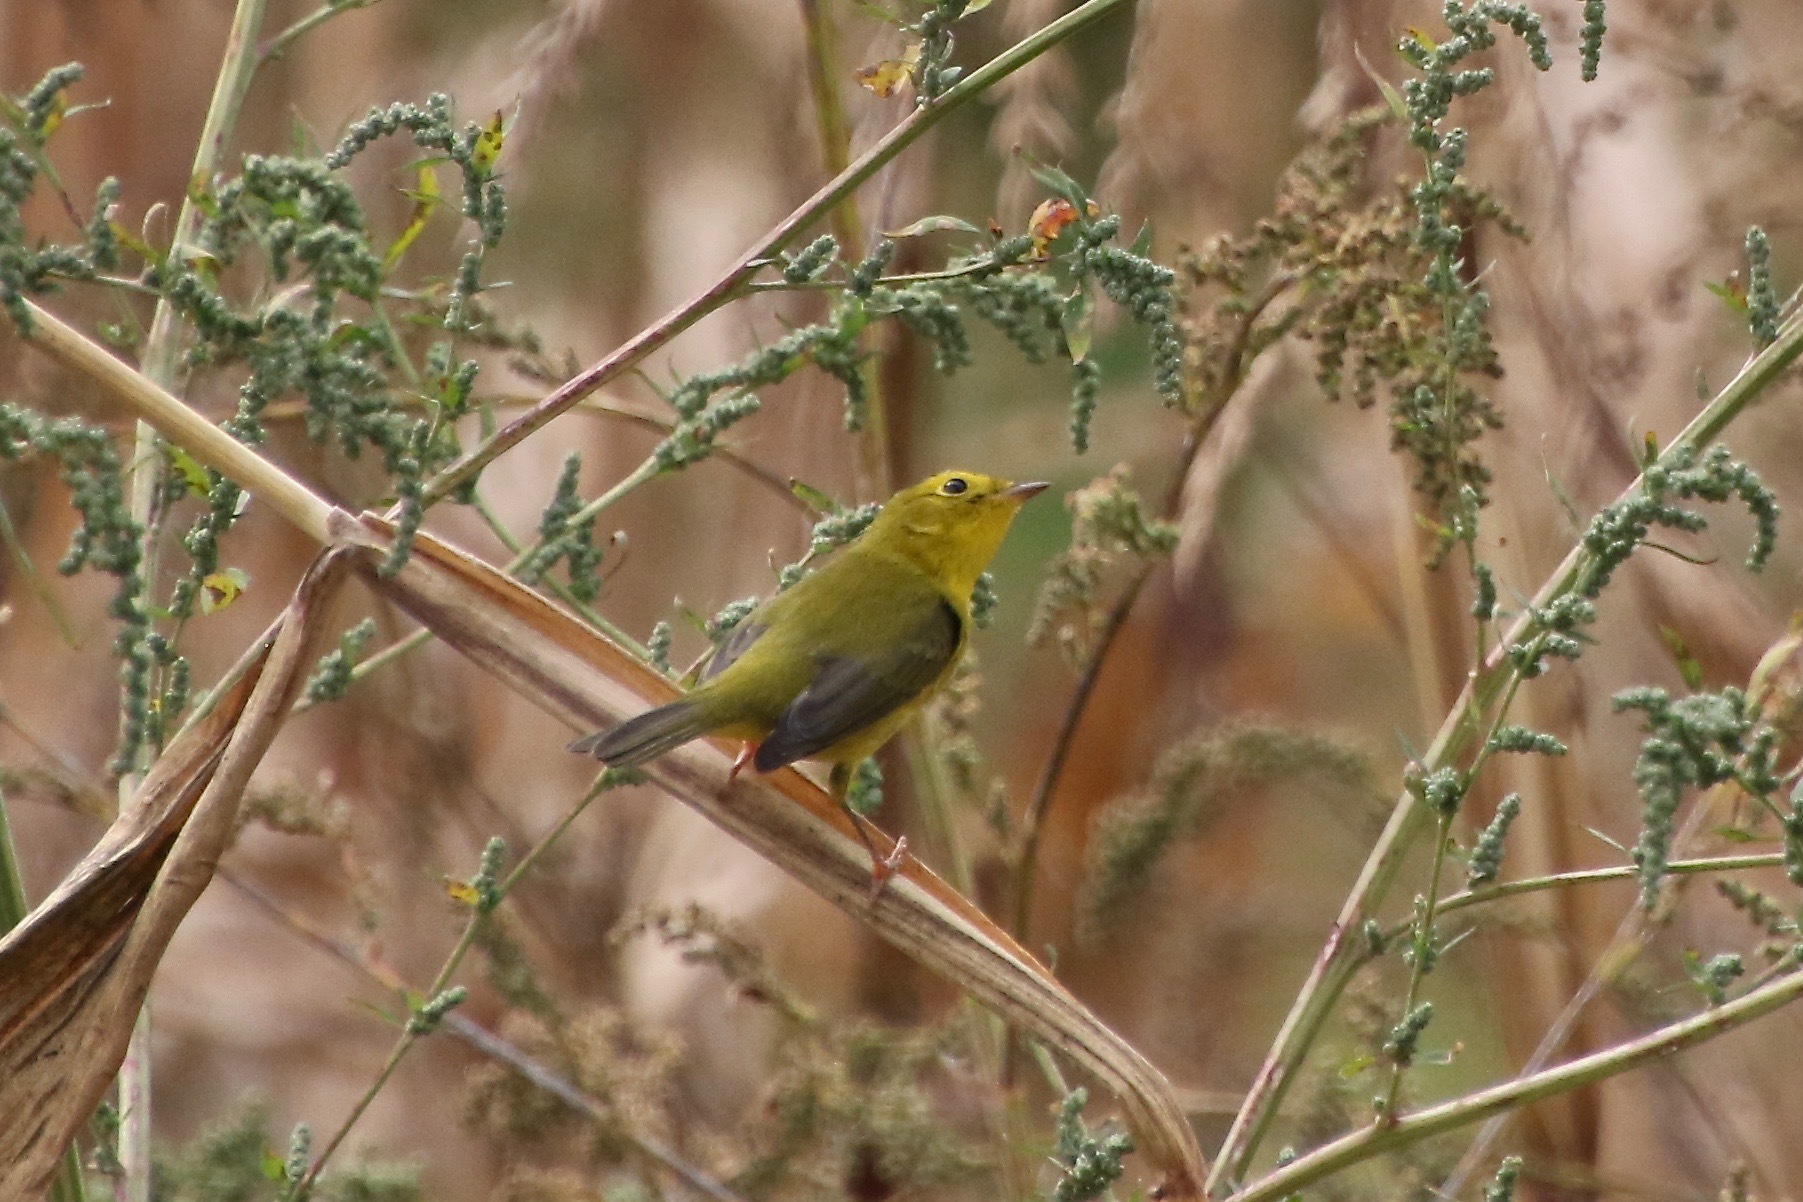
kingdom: Animalia
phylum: Chordata
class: Aves
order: Passeriformes
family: Parulidae
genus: Cardellina
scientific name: Cardellina pusilla
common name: Wilson's warbler
